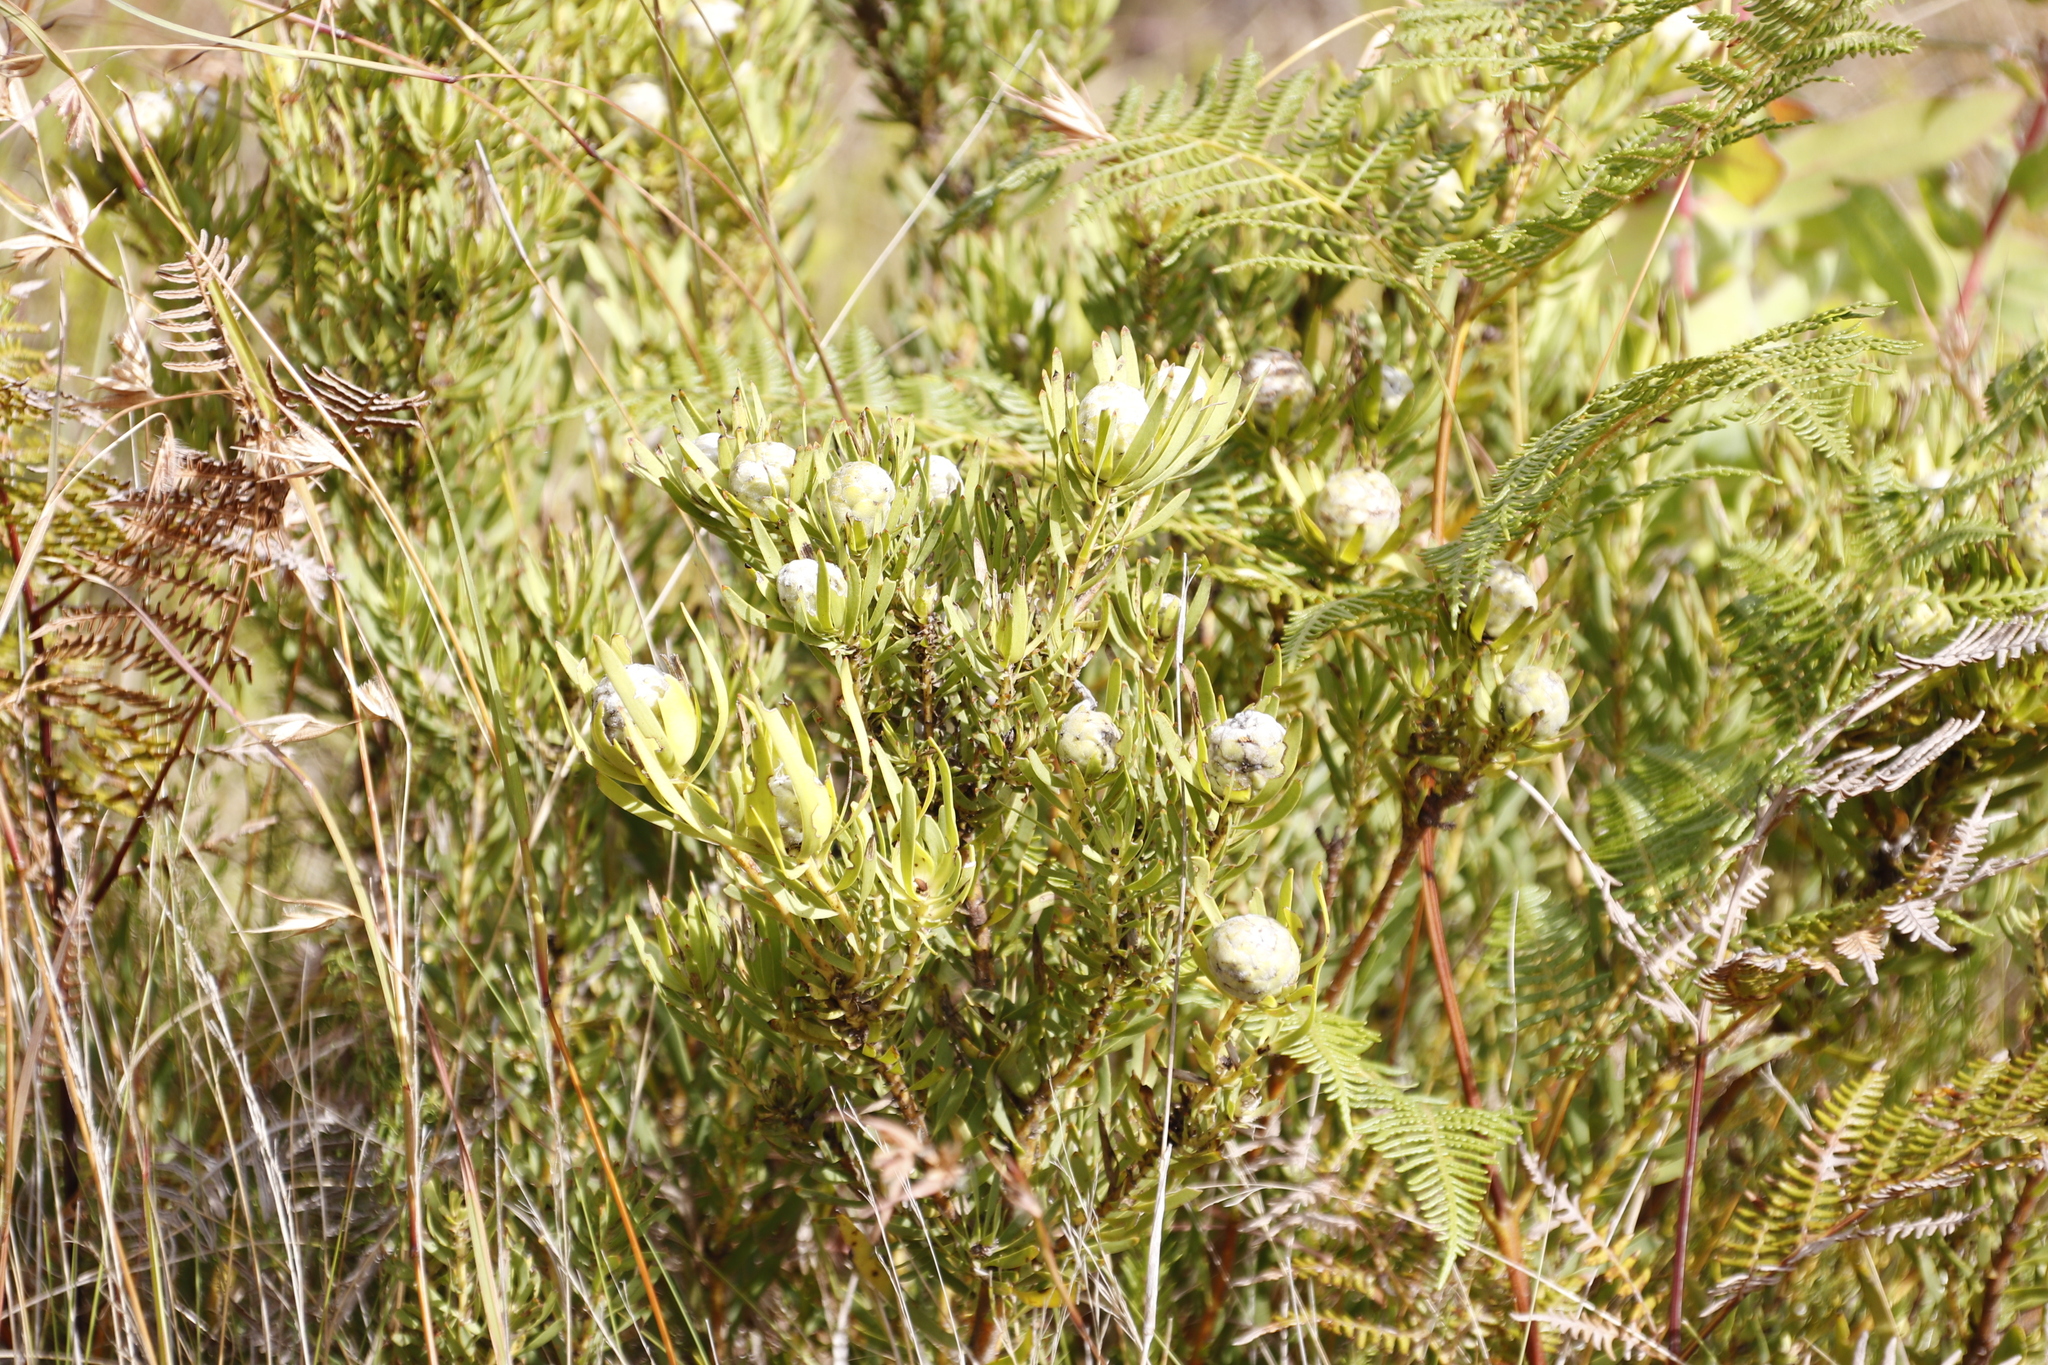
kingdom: Plantae
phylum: Tracheophyta
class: Magnoliopsida
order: Proteales
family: Proteaceae
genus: Leucadendron
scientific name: Leucadendron salignum
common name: Common sunshine conebush
